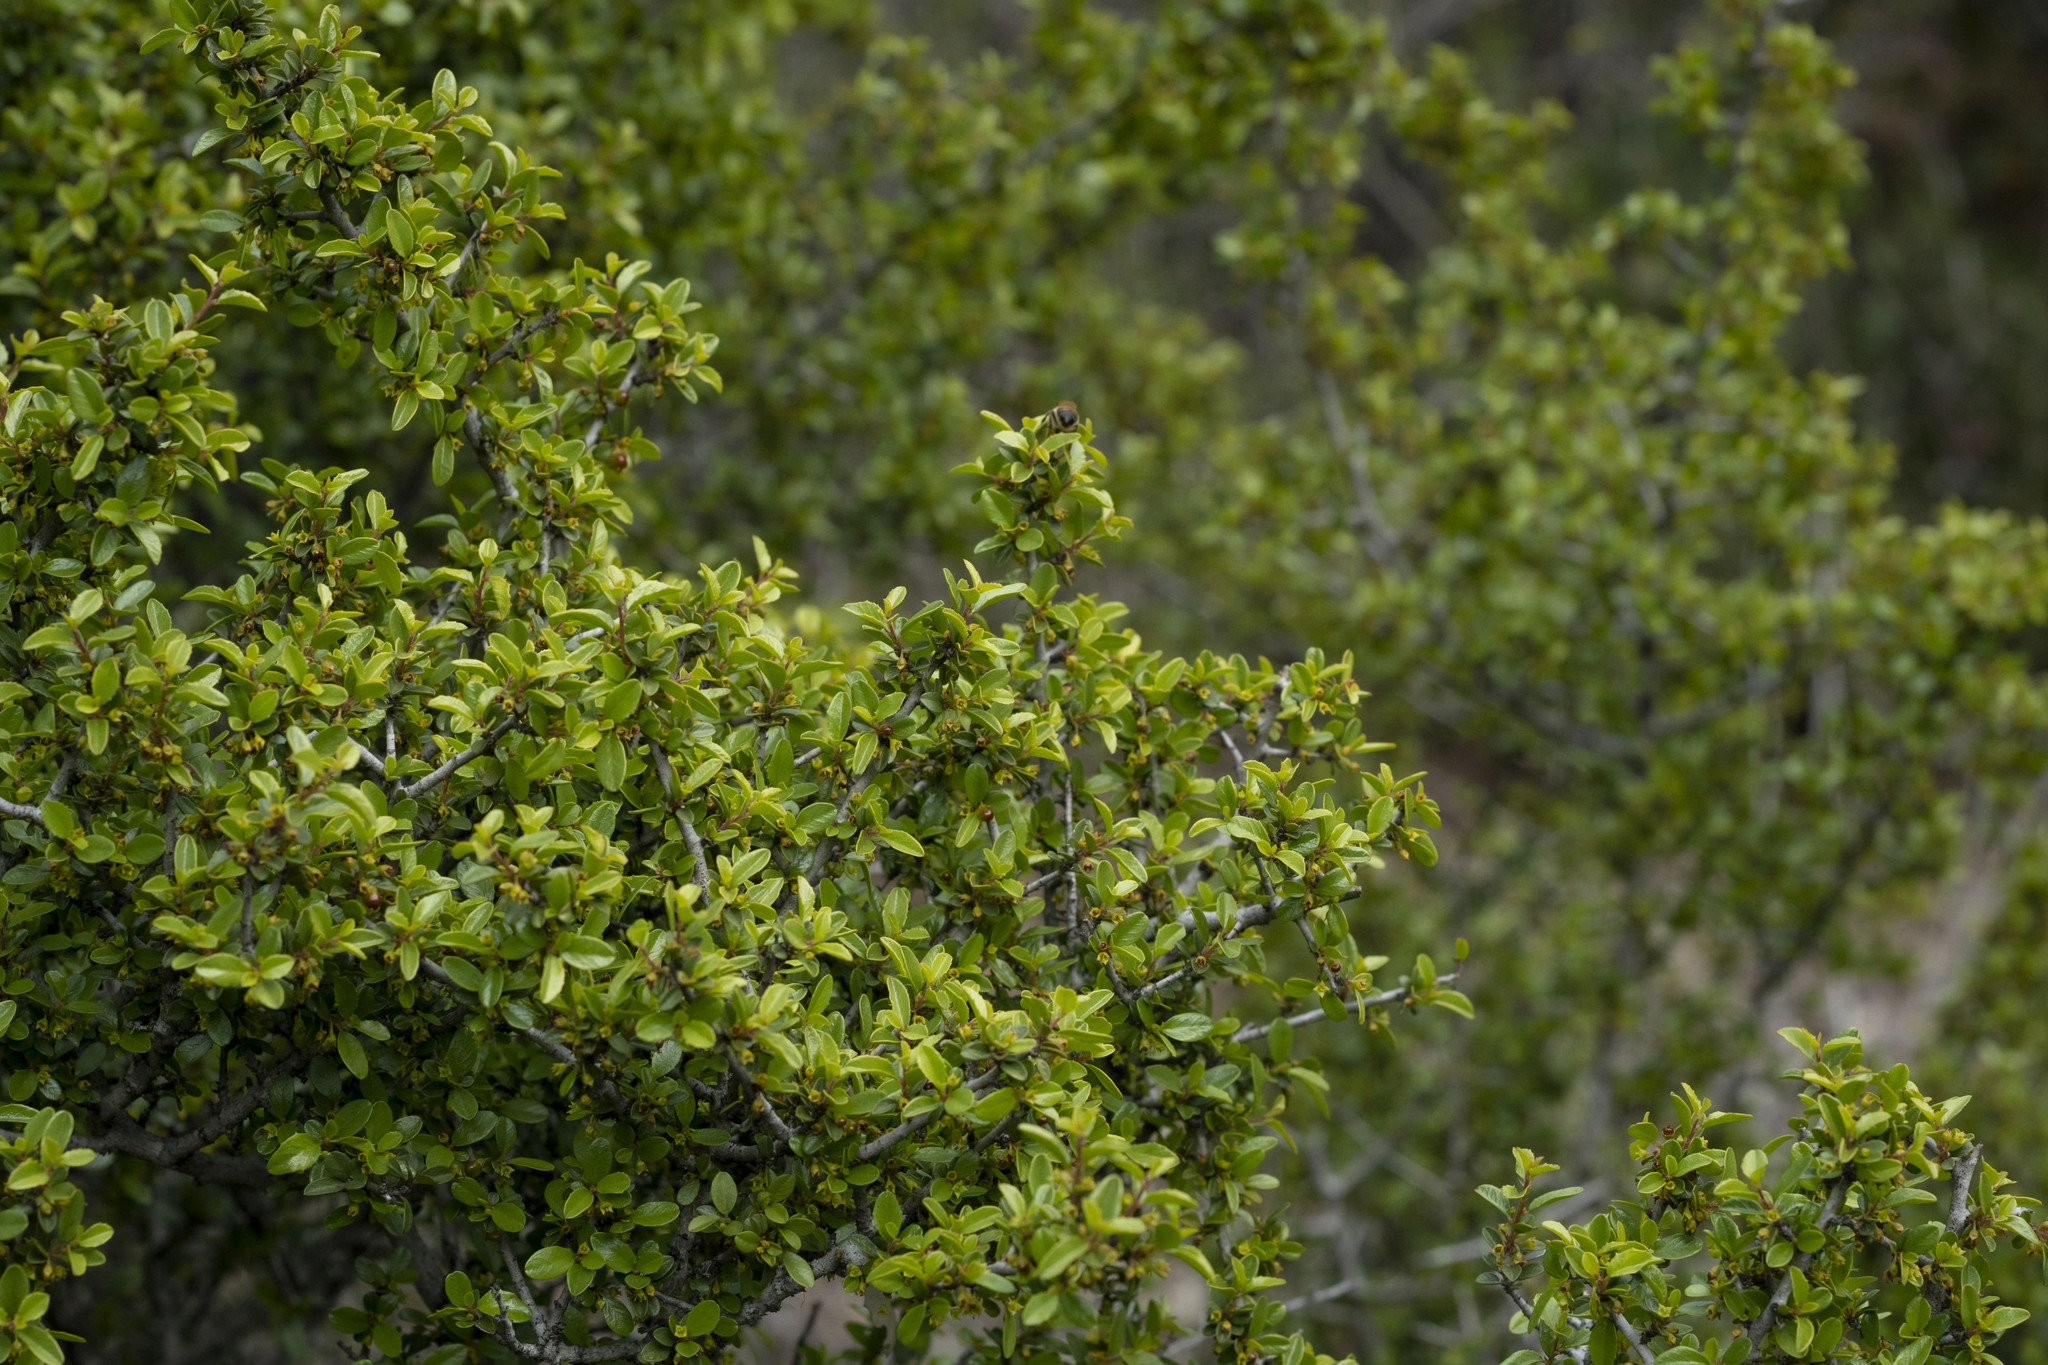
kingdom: Plantae
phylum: Tracheophyta
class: Magnoliopsida
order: Rosales
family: Rhamnaceae
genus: Endotropis
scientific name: Endotropis crocea
